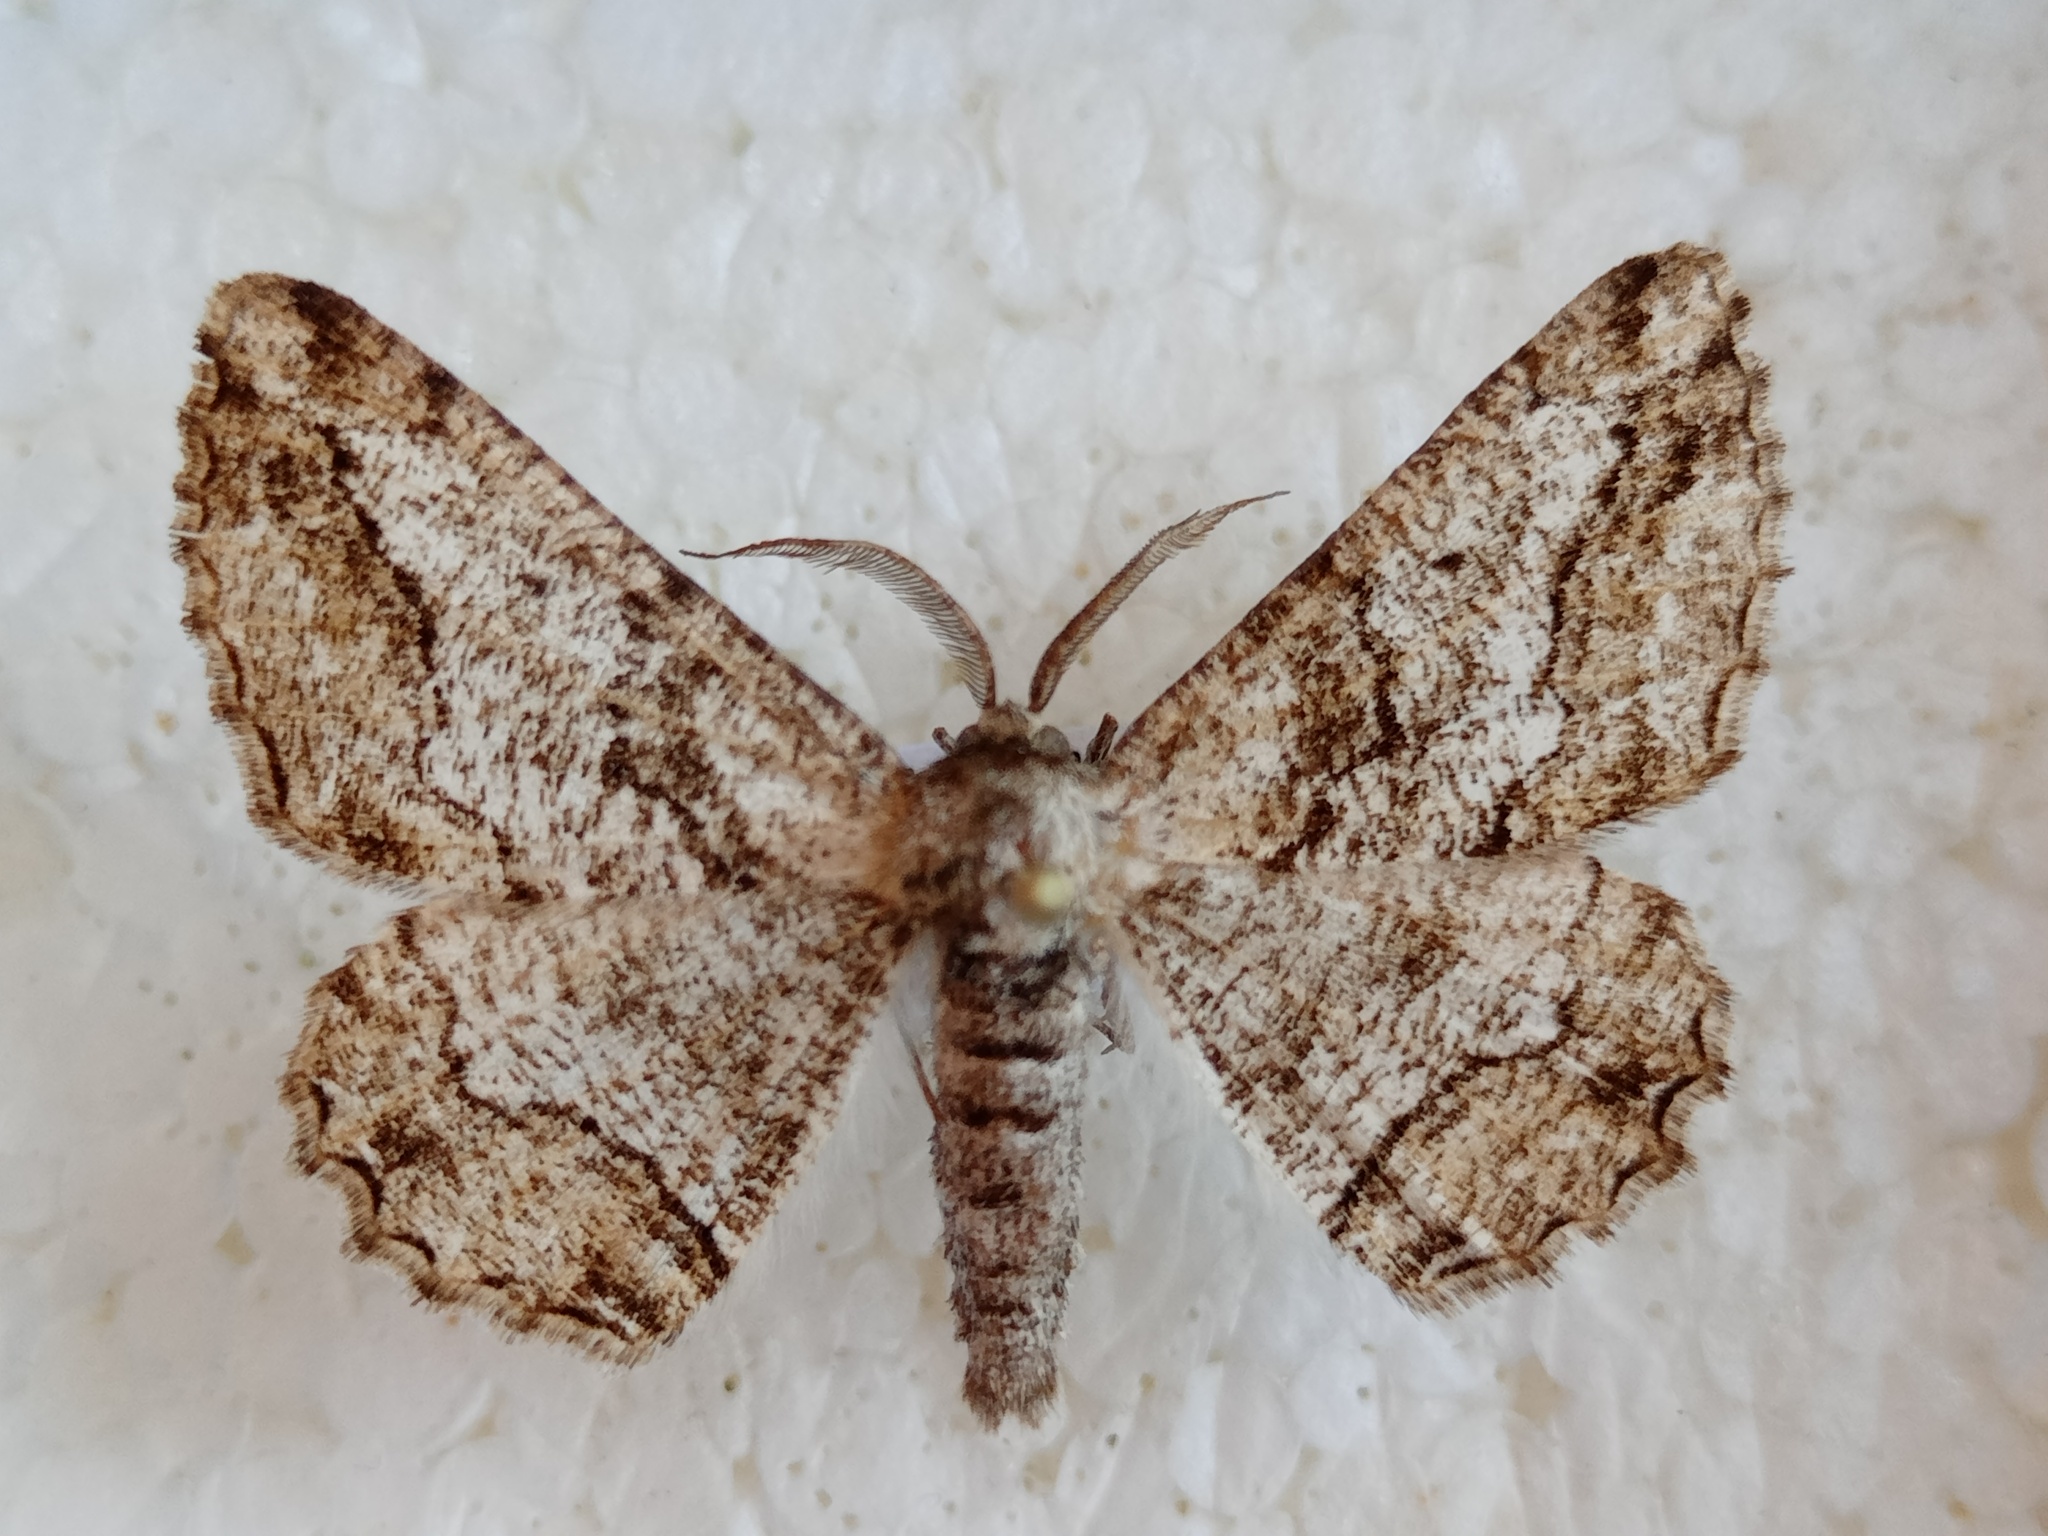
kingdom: Animalia
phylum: Arthropoda
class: Insecta
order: Lepidoptera
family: Geometridae
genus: Synopsia
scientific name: Synopsia sociaria
